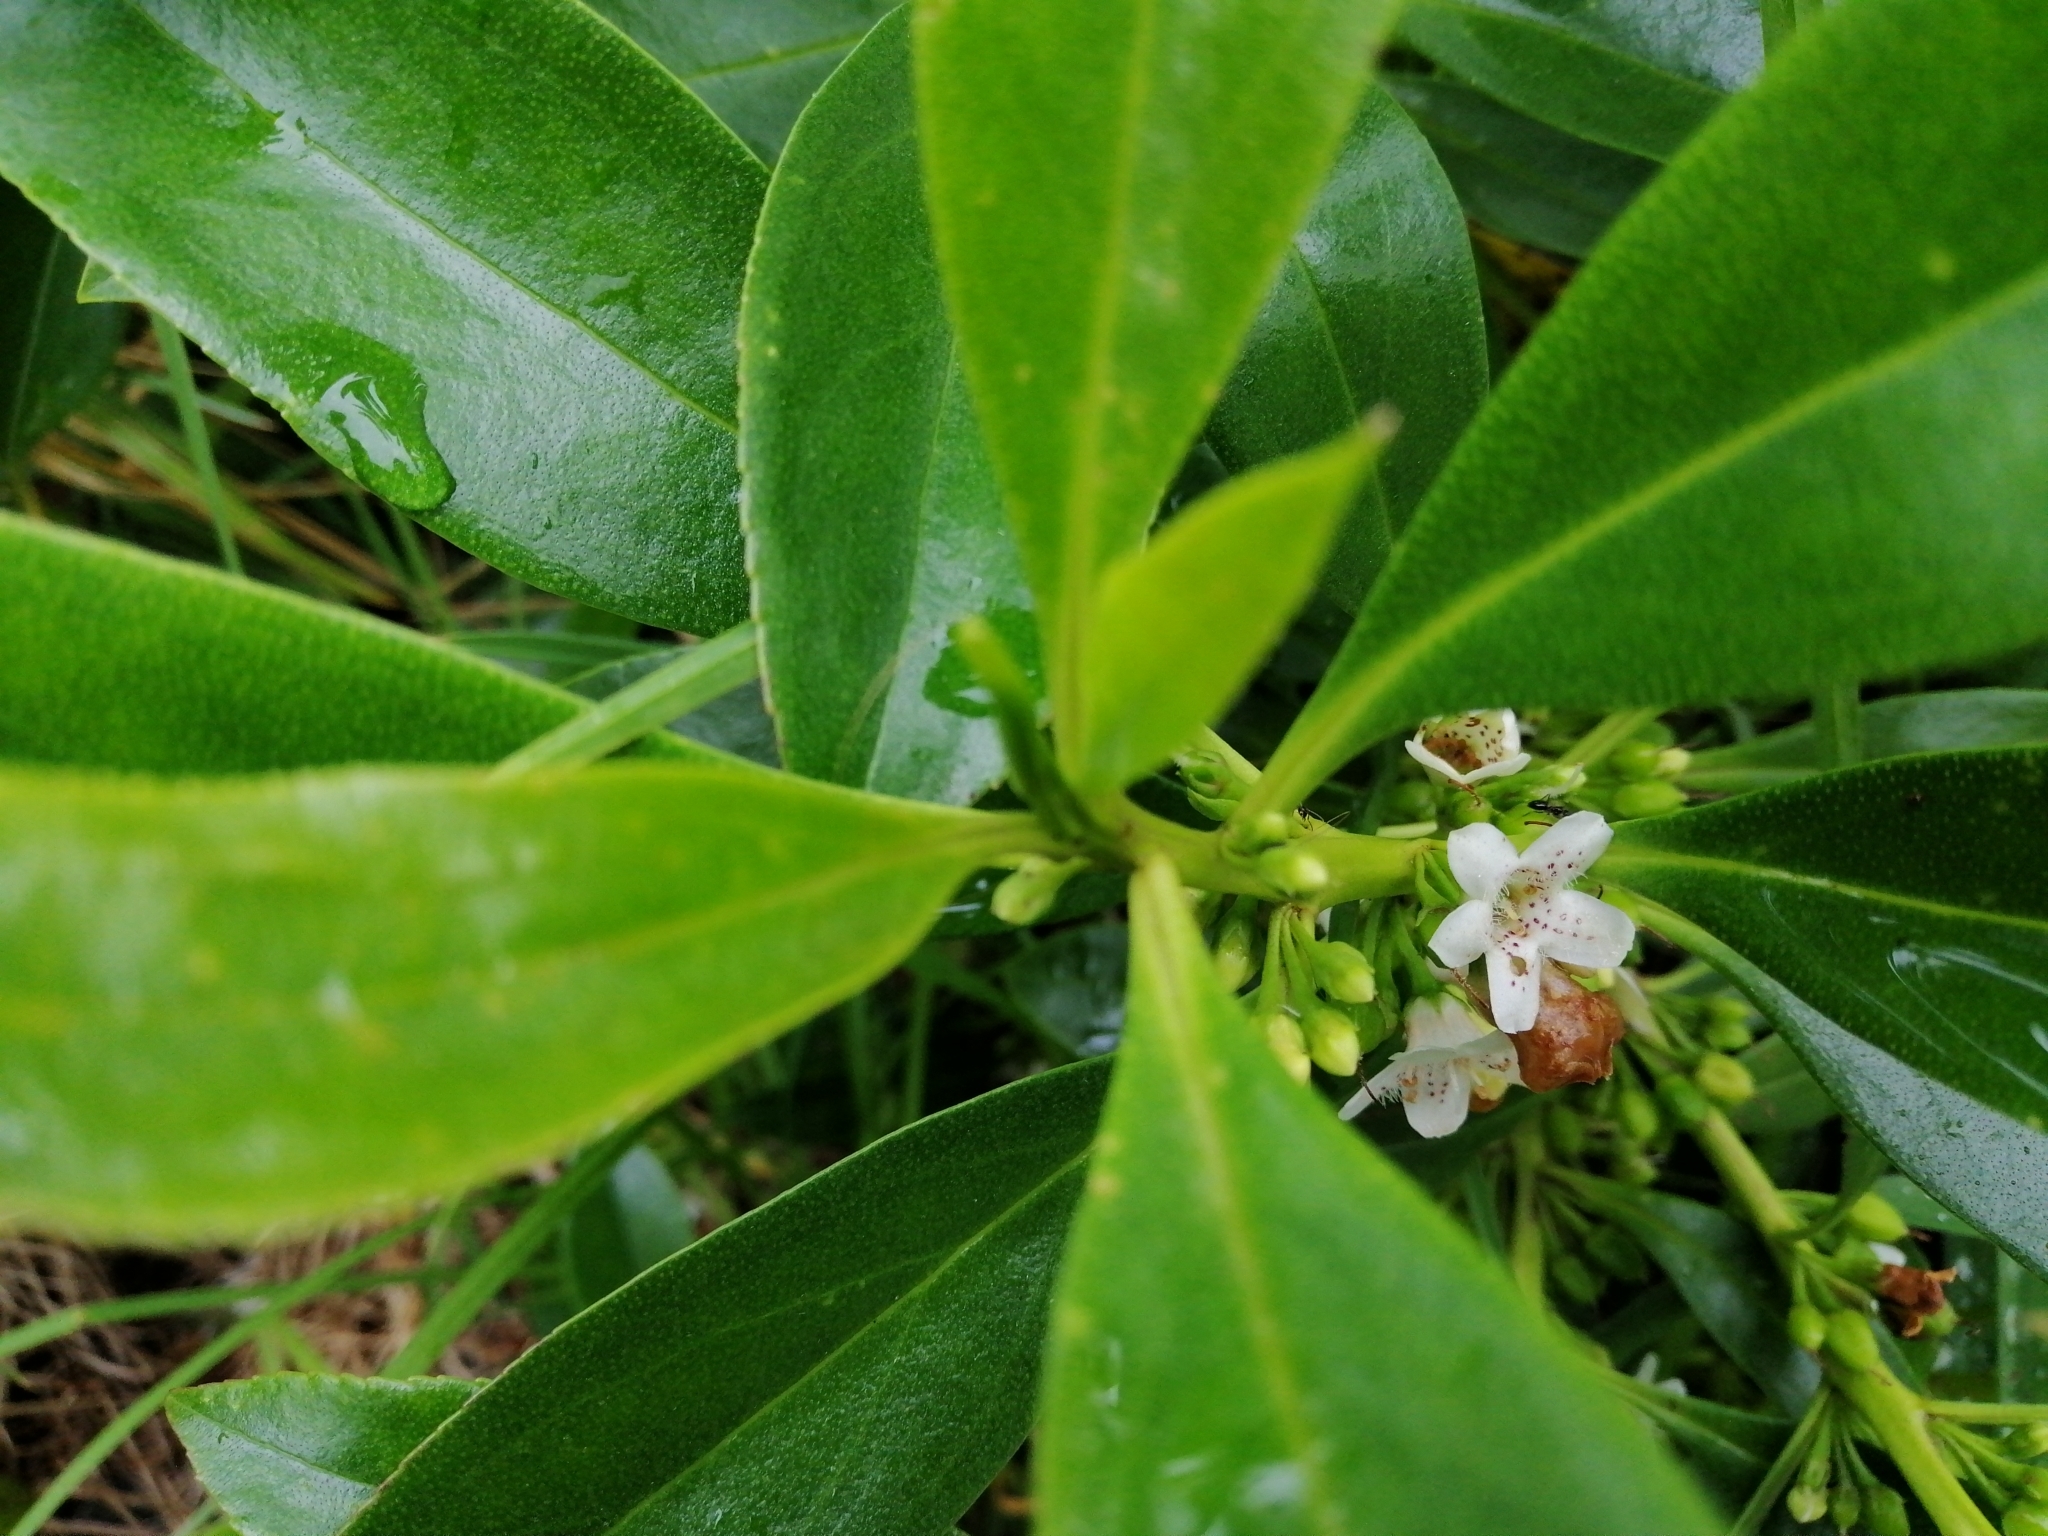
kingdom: Plantae
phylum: Tracheophyta
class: Magnoliopsida
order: Lamiales
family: Scrophulariaceae
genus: Myoporum
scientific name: Myoporum
